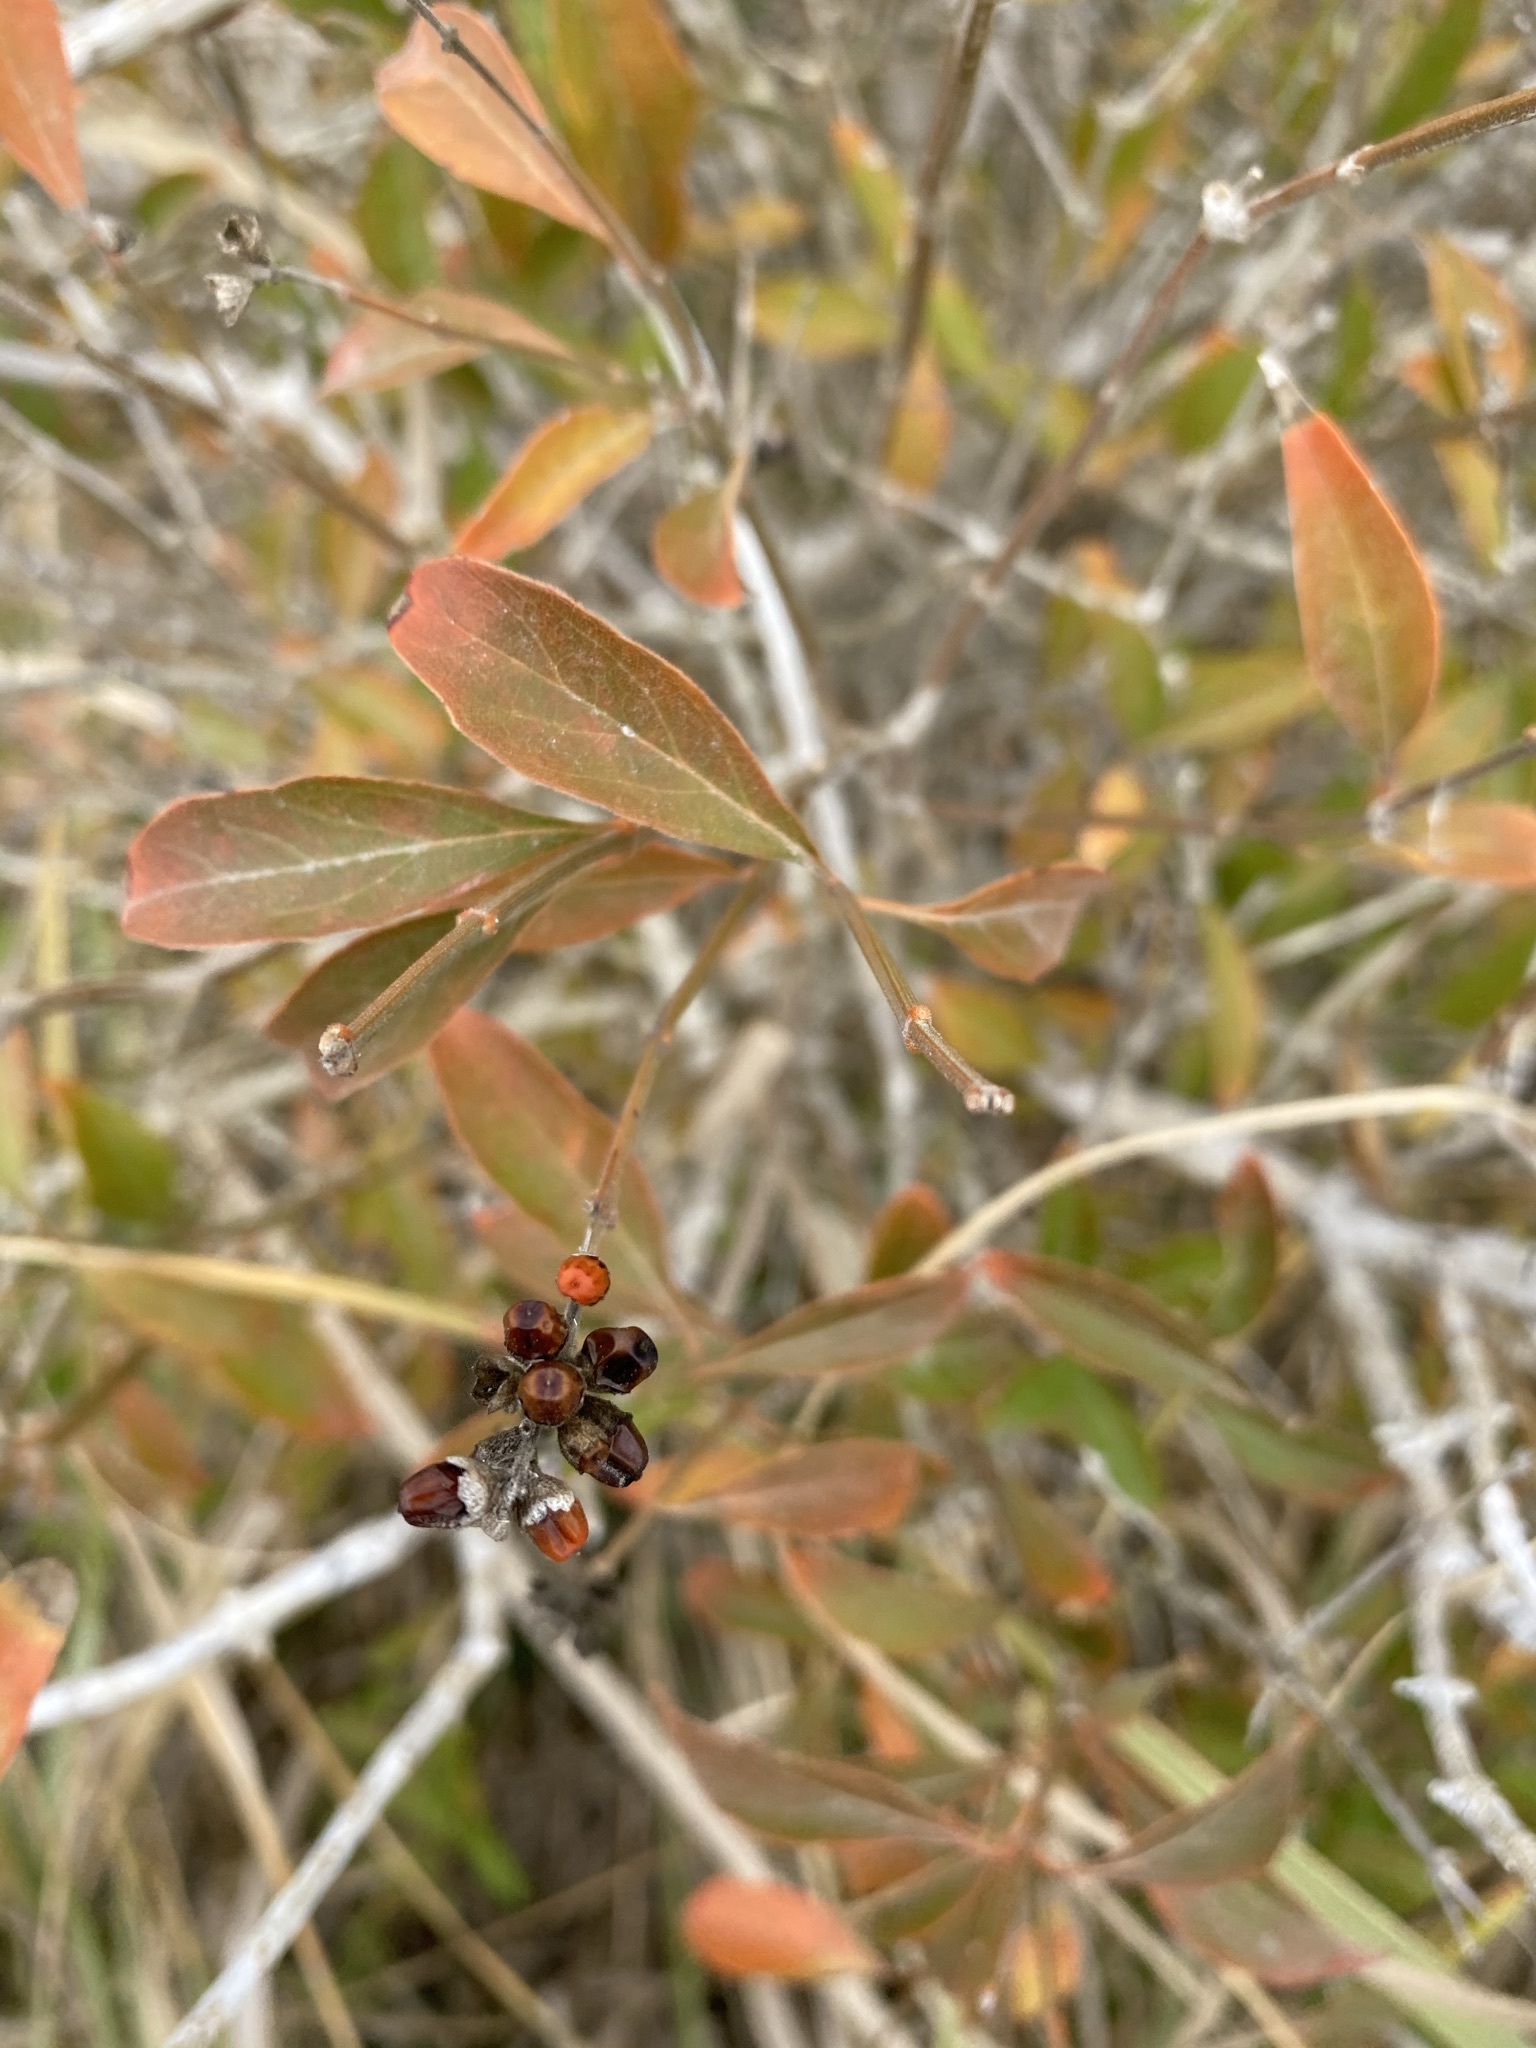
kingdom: Plantae
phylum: Tracheophyta
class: Magnoliopsida
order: Lamiales
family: Verbenaceae
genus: Citharexylum
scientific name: Citharexylum berlandieri
